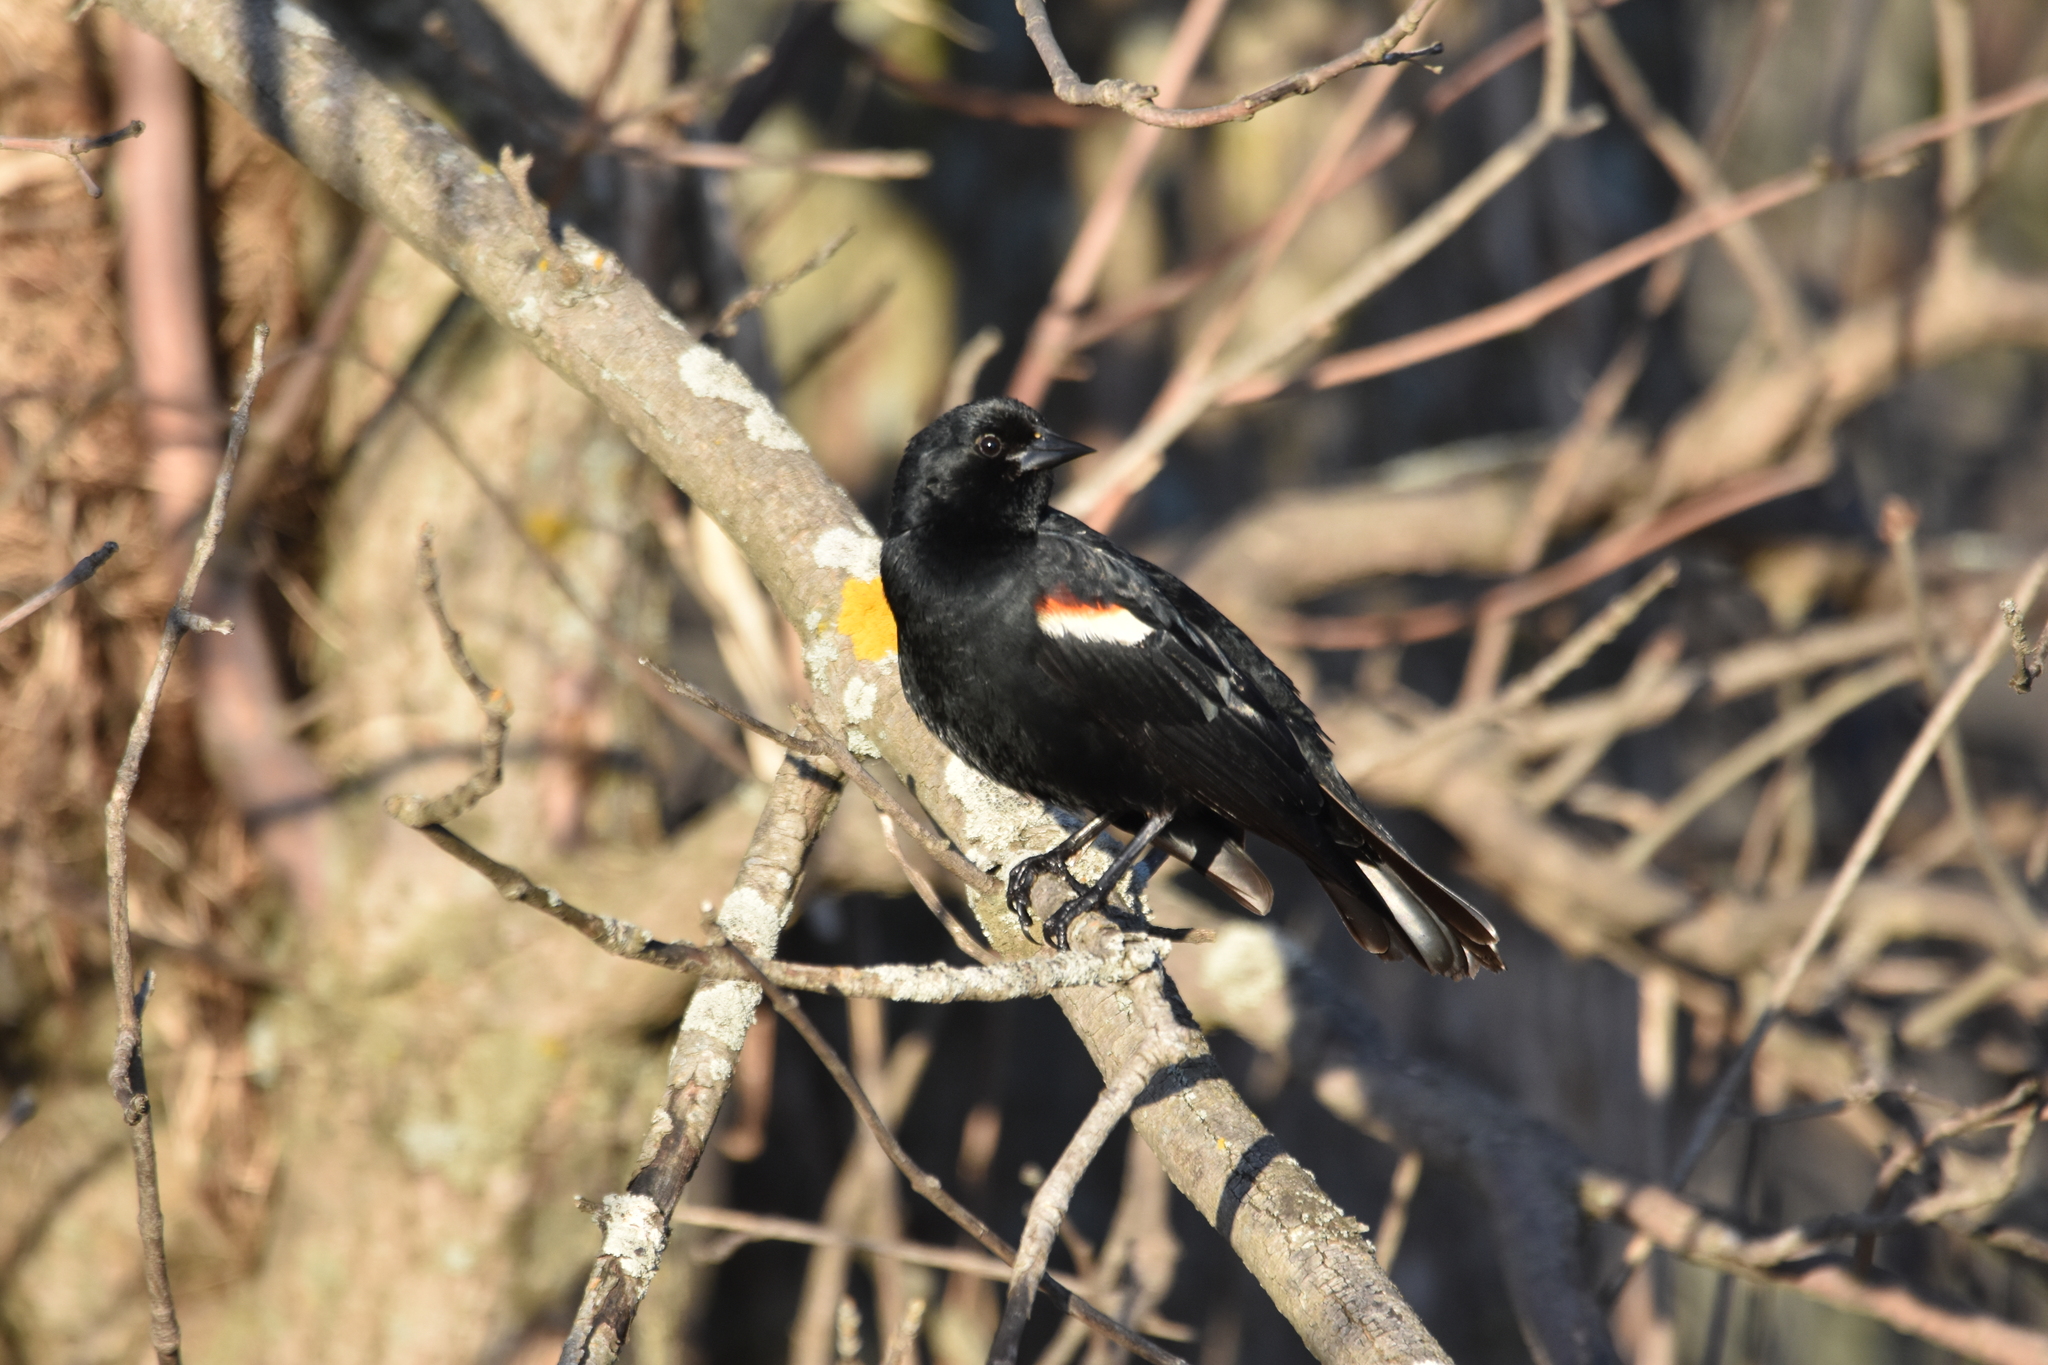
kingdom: Animalia
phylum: Chordata
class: Aves
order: Passeriformes
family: Icteridae
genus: Agelaius
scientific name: Agelaius phoeniceus
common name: Red-winged blackbird
